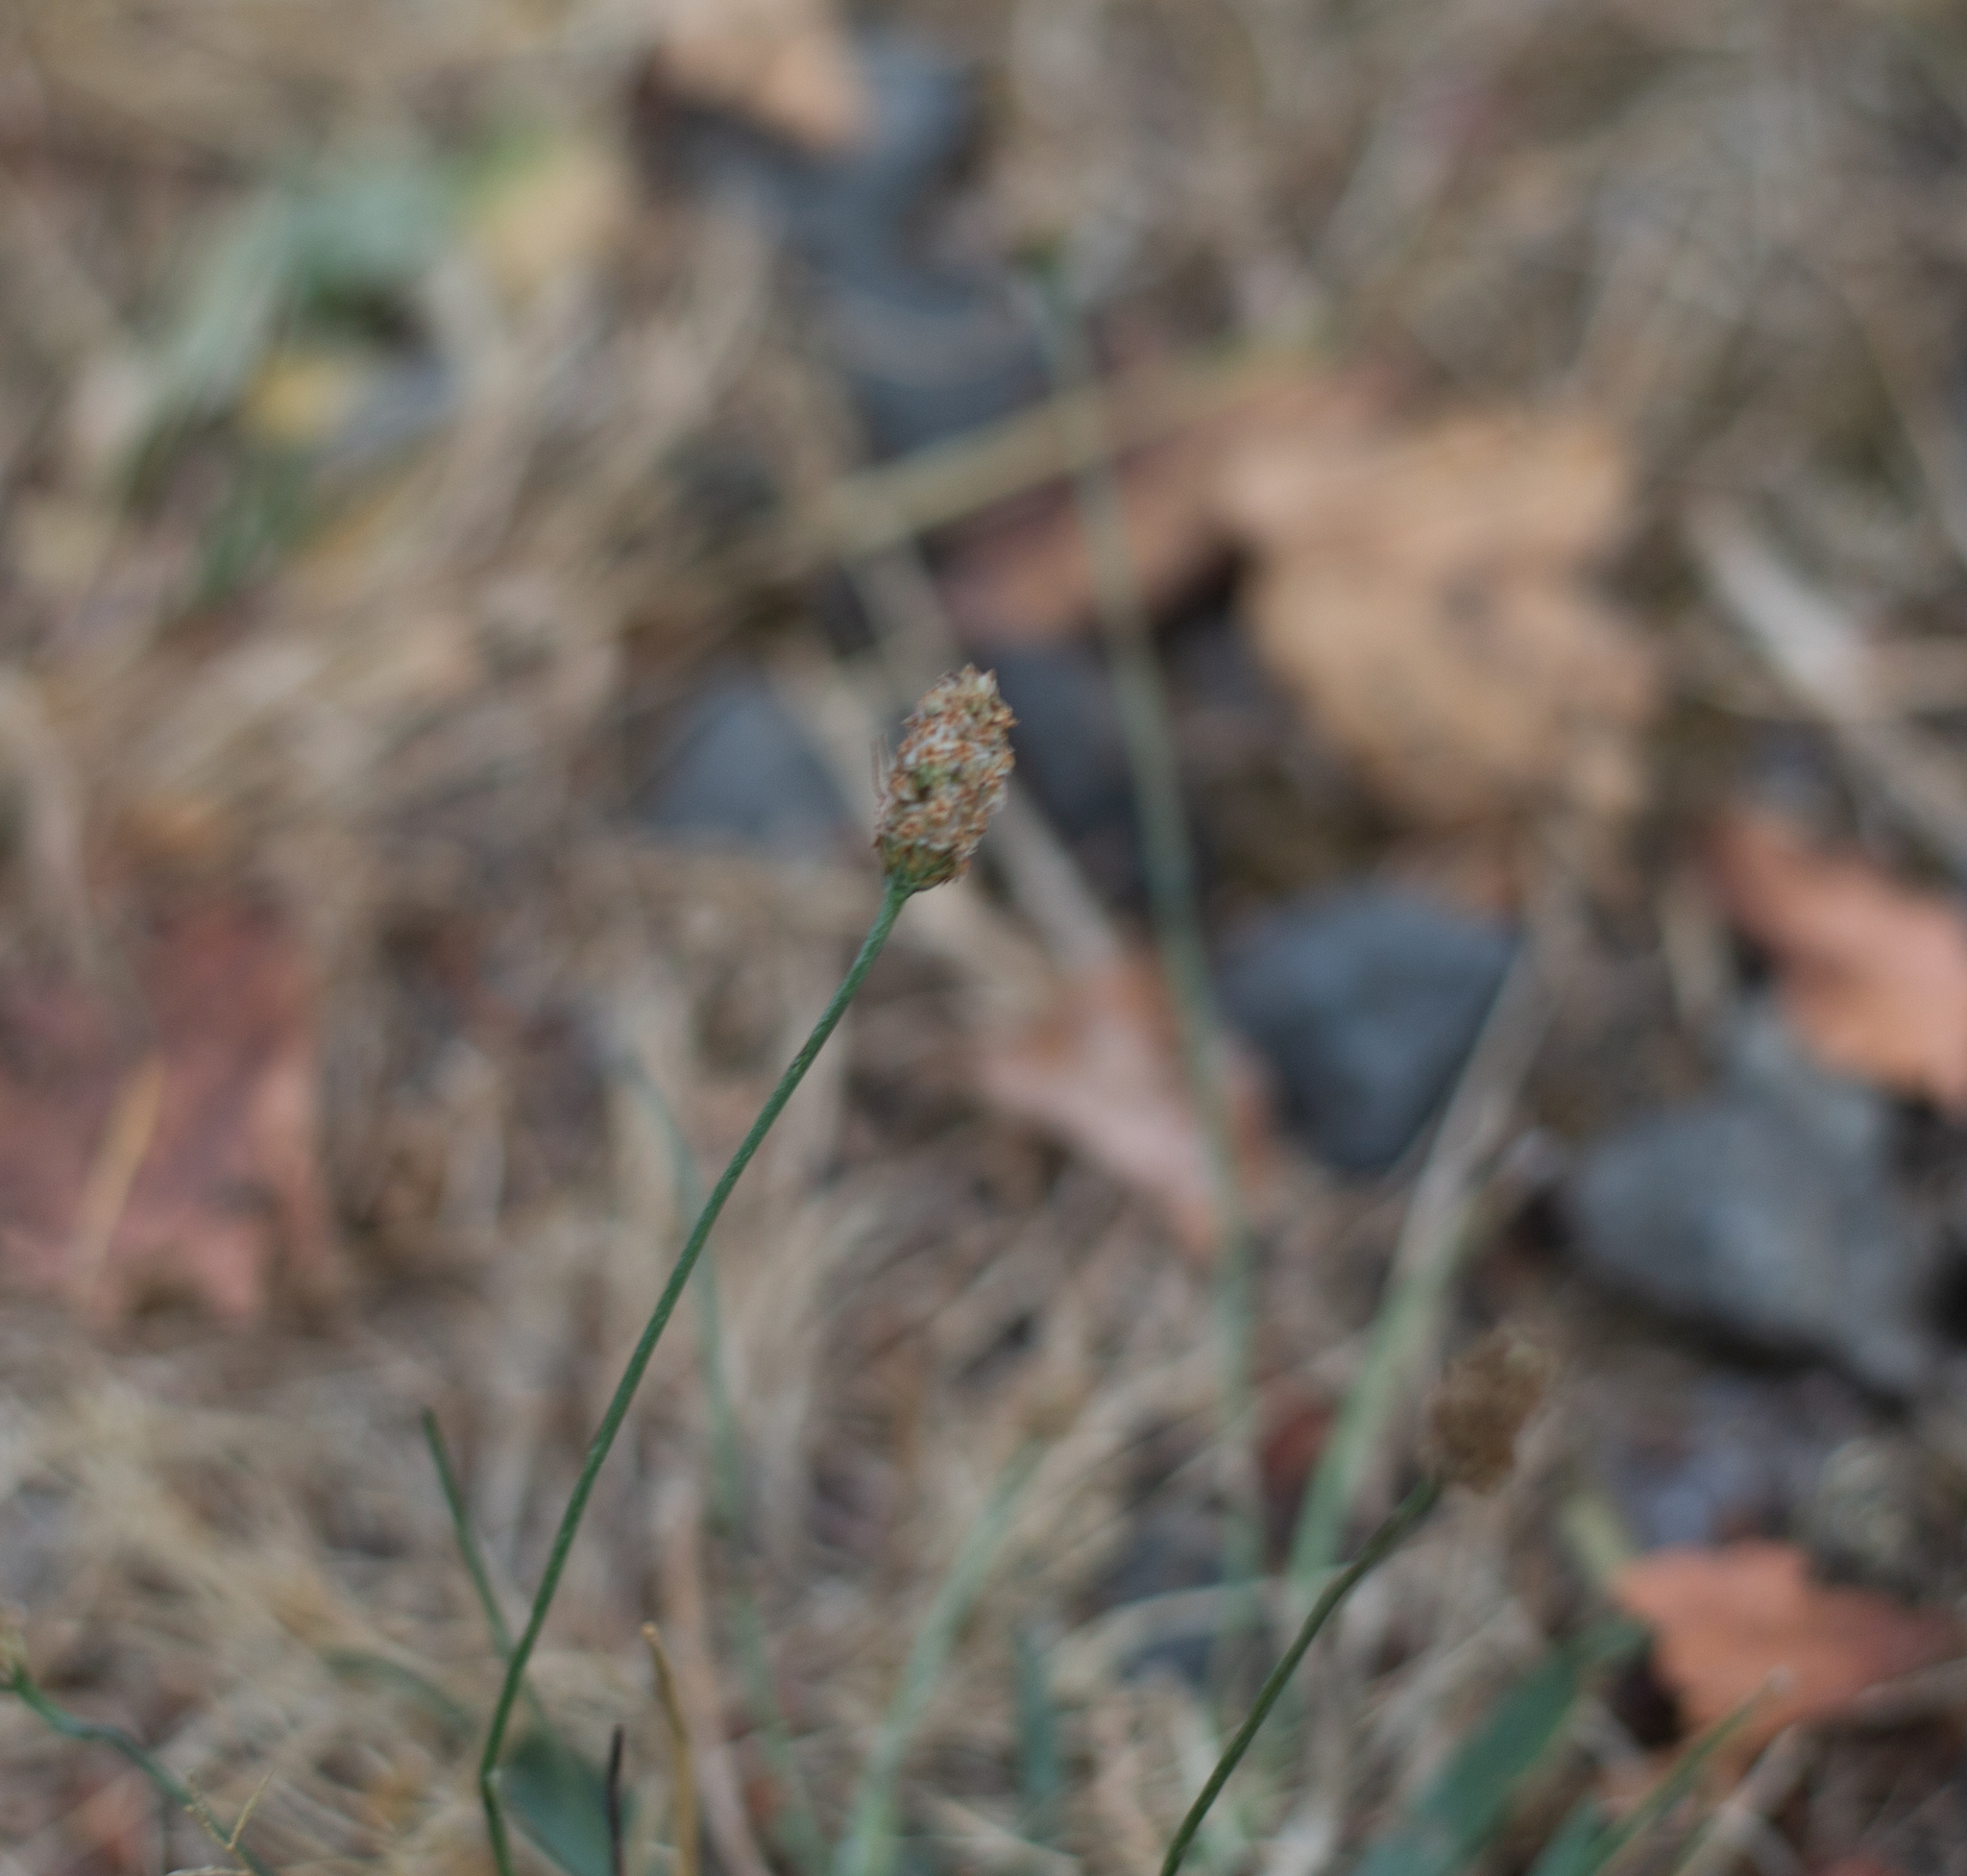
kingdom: Plantae
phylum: Tracheophyta
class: Magnoliopsida
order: Lamiales
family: Plantaginaceae
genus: Plantago
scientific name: Plantago lanceolata
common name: Ribwort plantain
